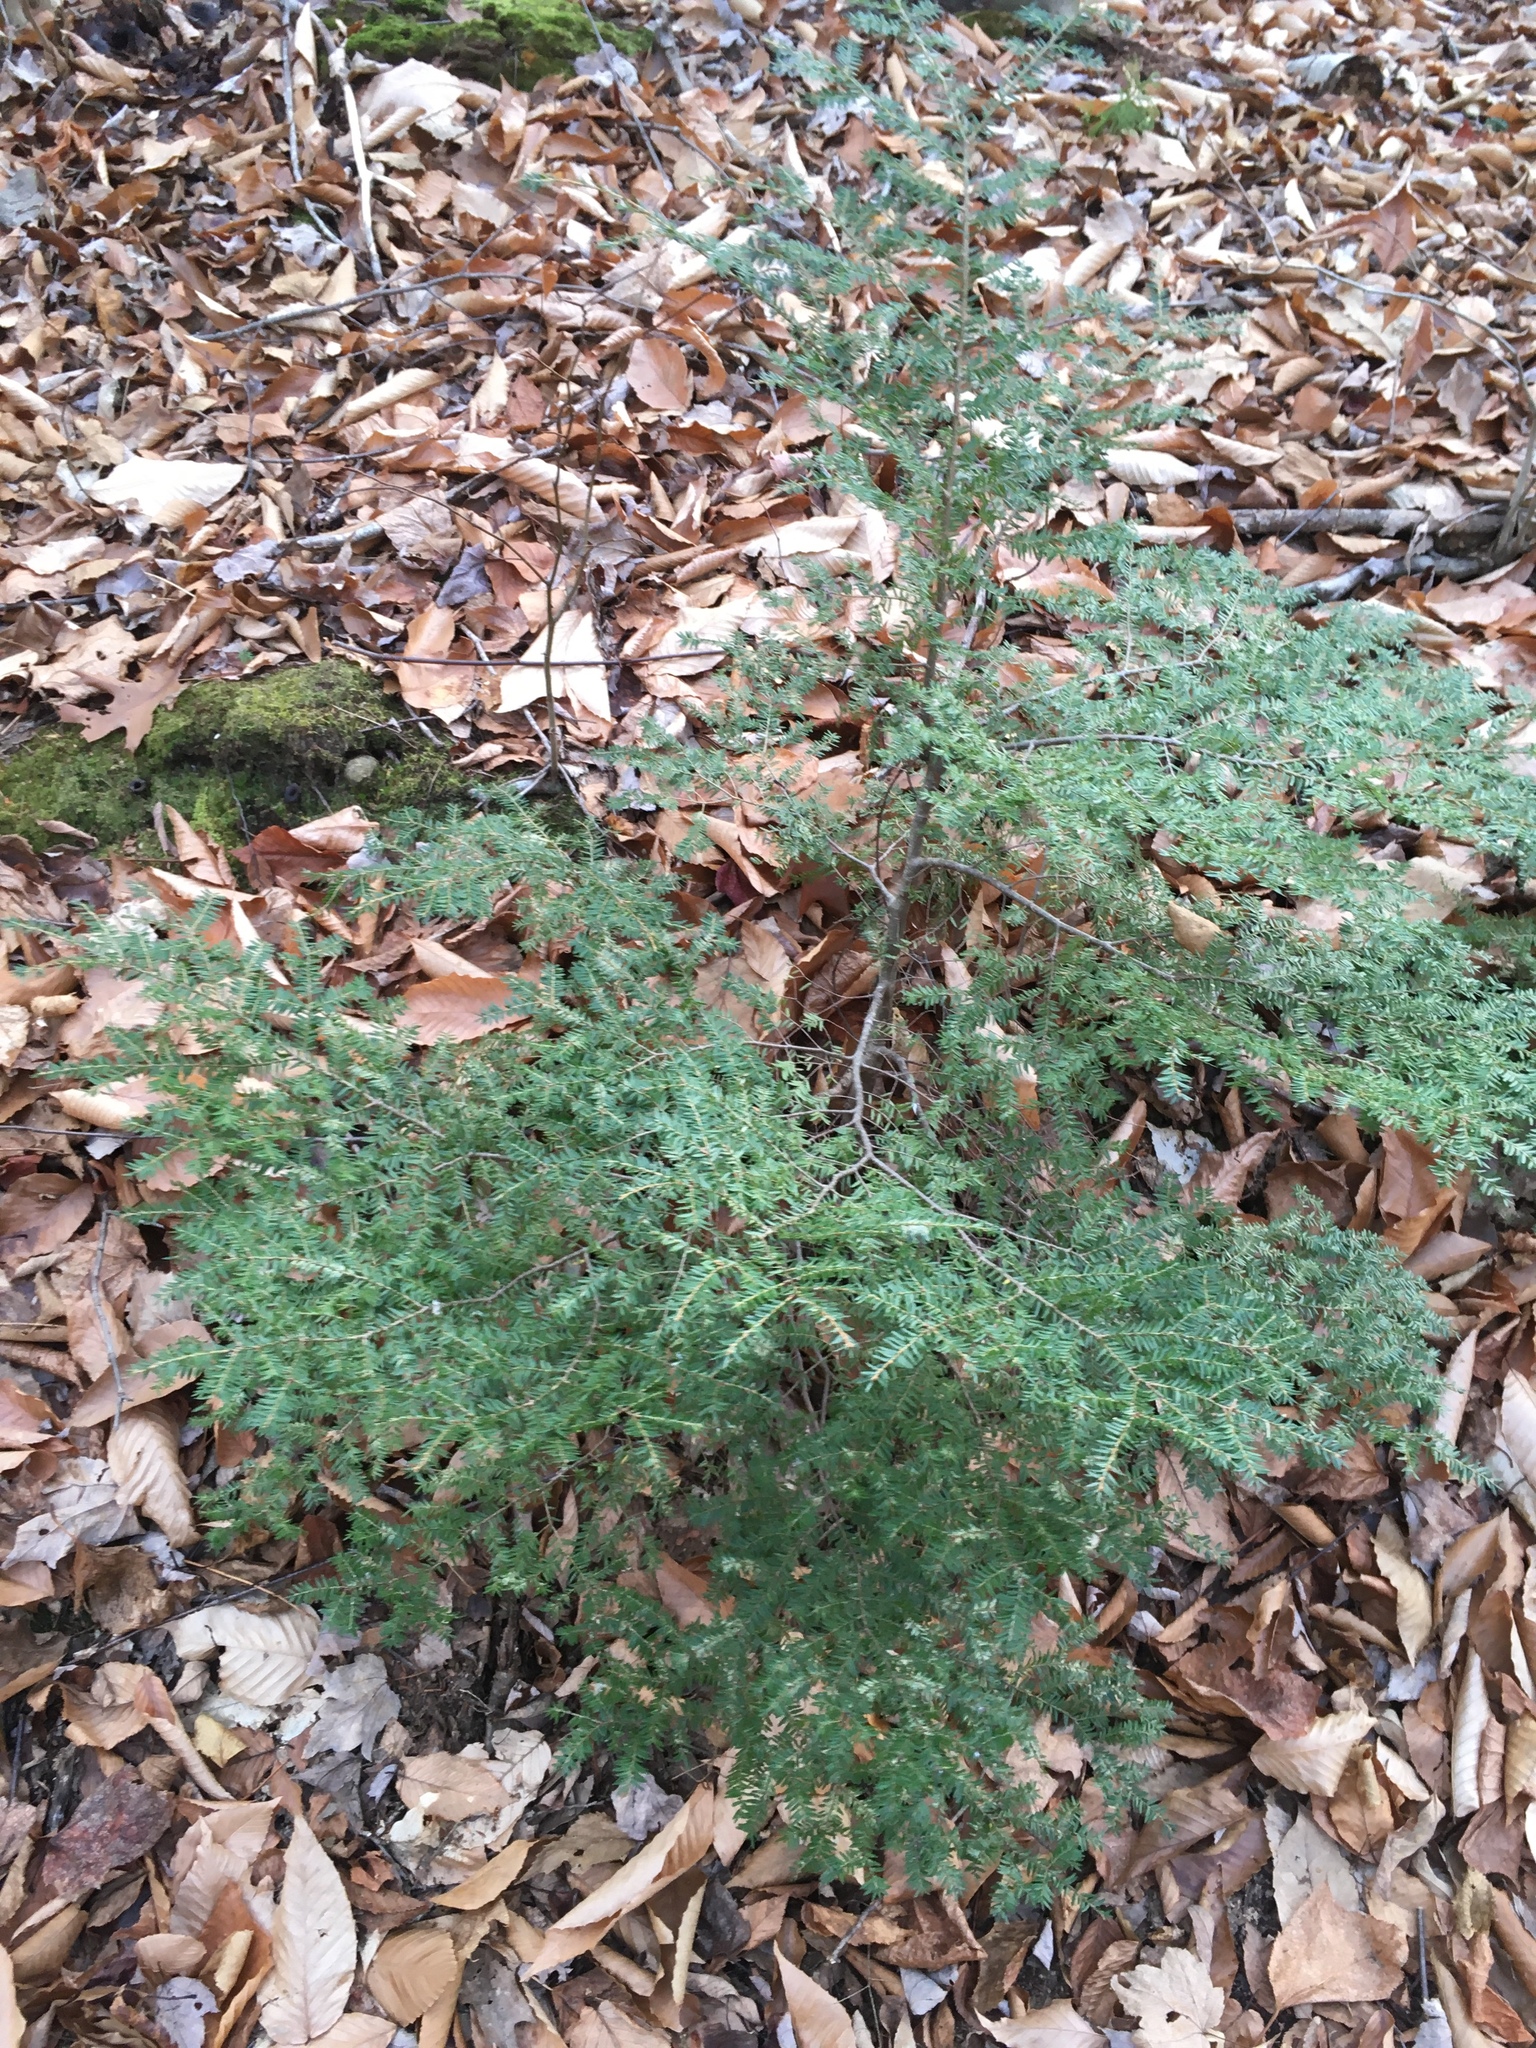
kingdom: Plantae
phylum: Tracheophyta
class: Pinopsida
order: Pinales
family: Pinaceae
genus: Tsuga
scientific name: Tsuga canadensis
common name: Eastern hemlock
